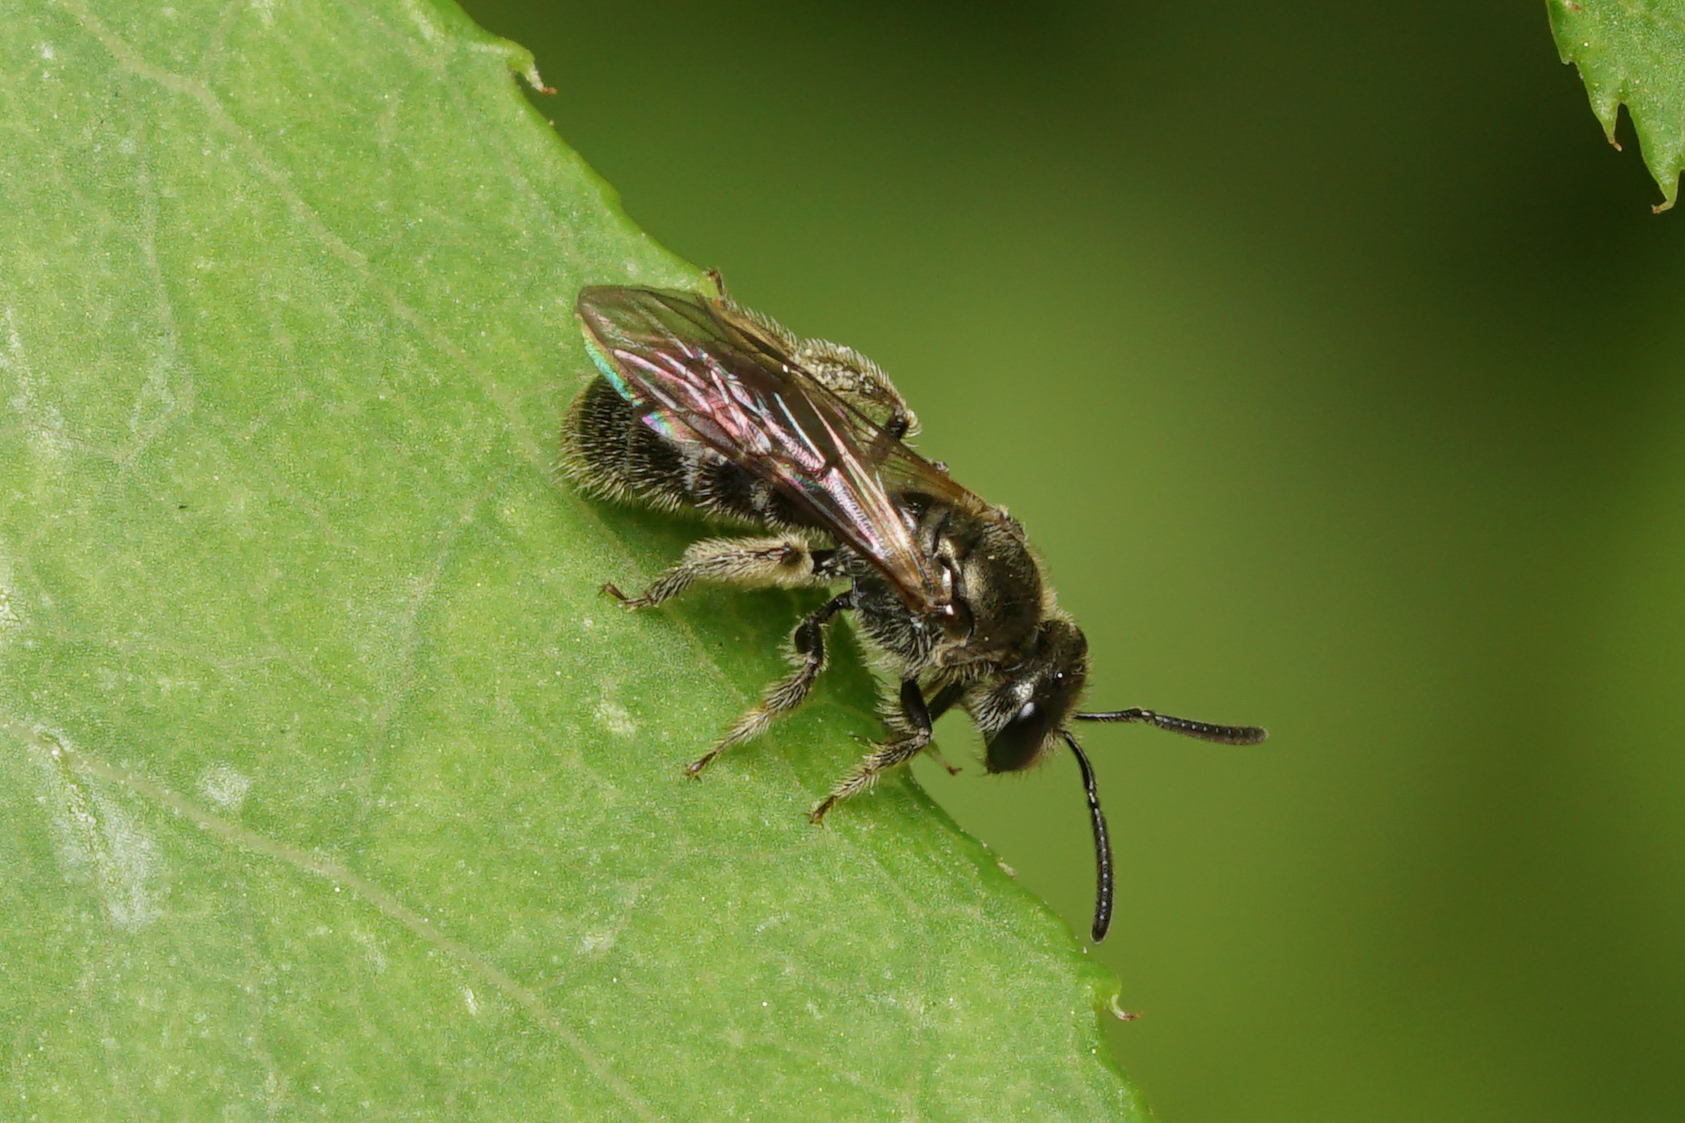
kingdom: Animalia
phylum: Arthropoda
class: Insecta
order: Hymenoptera
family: Halictidae
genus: Dialictus
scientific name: Dialictus
